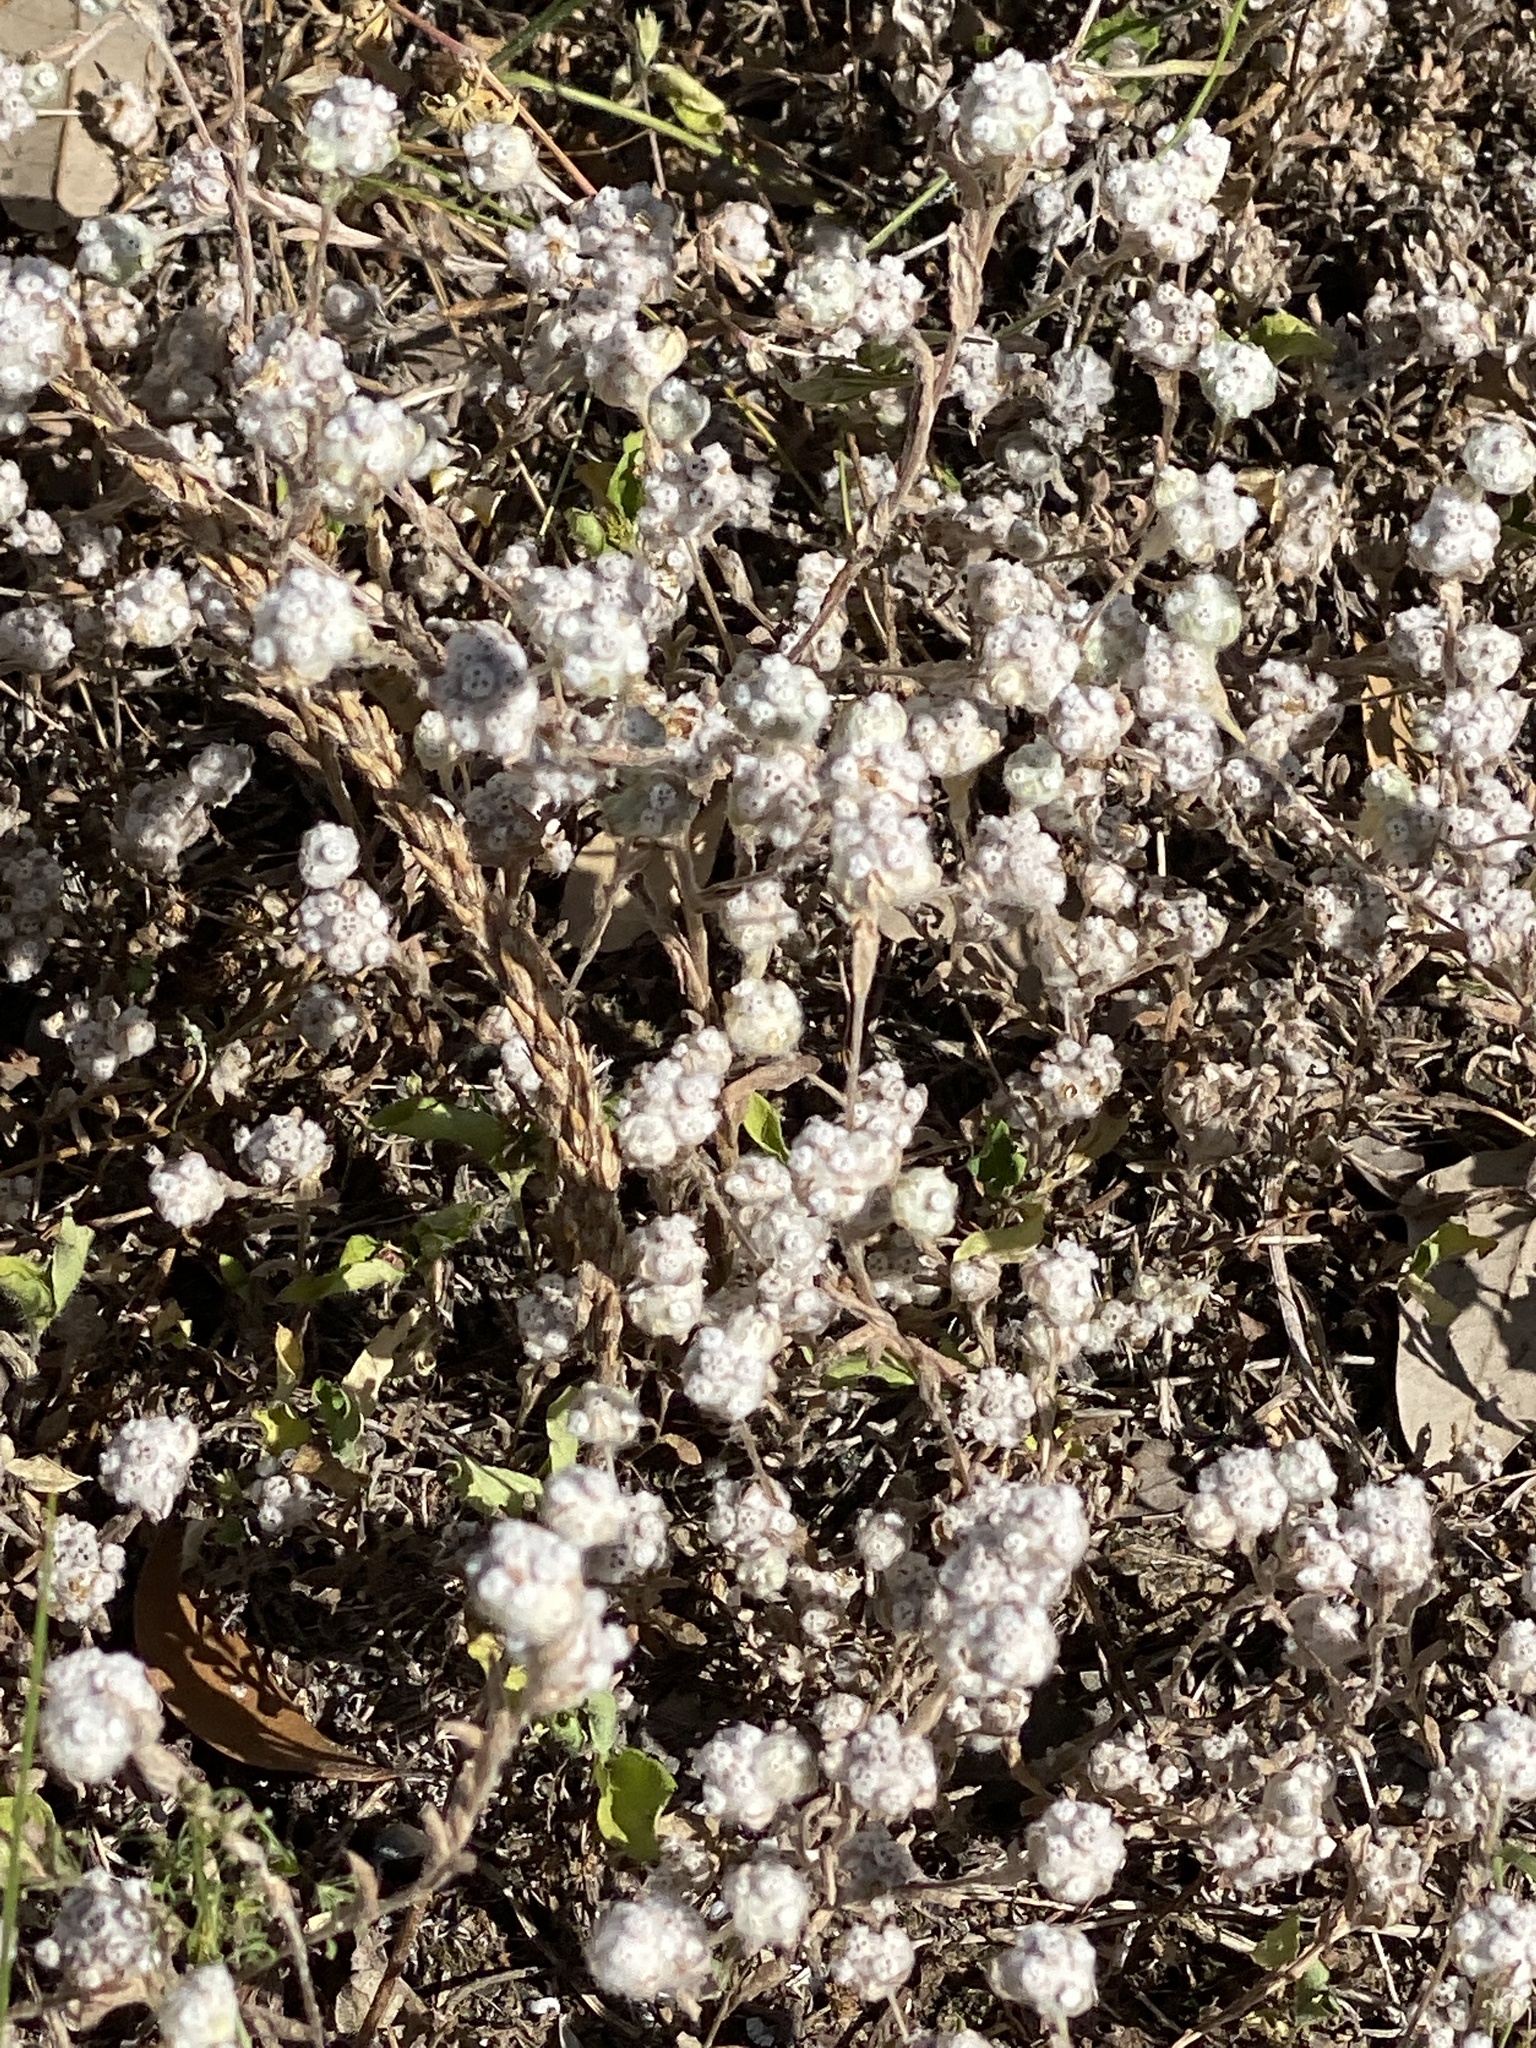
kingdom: Plantae
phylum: Tracheophyta
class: Magnoliopsida
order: Asterales
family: Asteraceae
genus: Diaperia
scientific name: Diaperia verna
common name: Many-stem rabbit-tobacco
